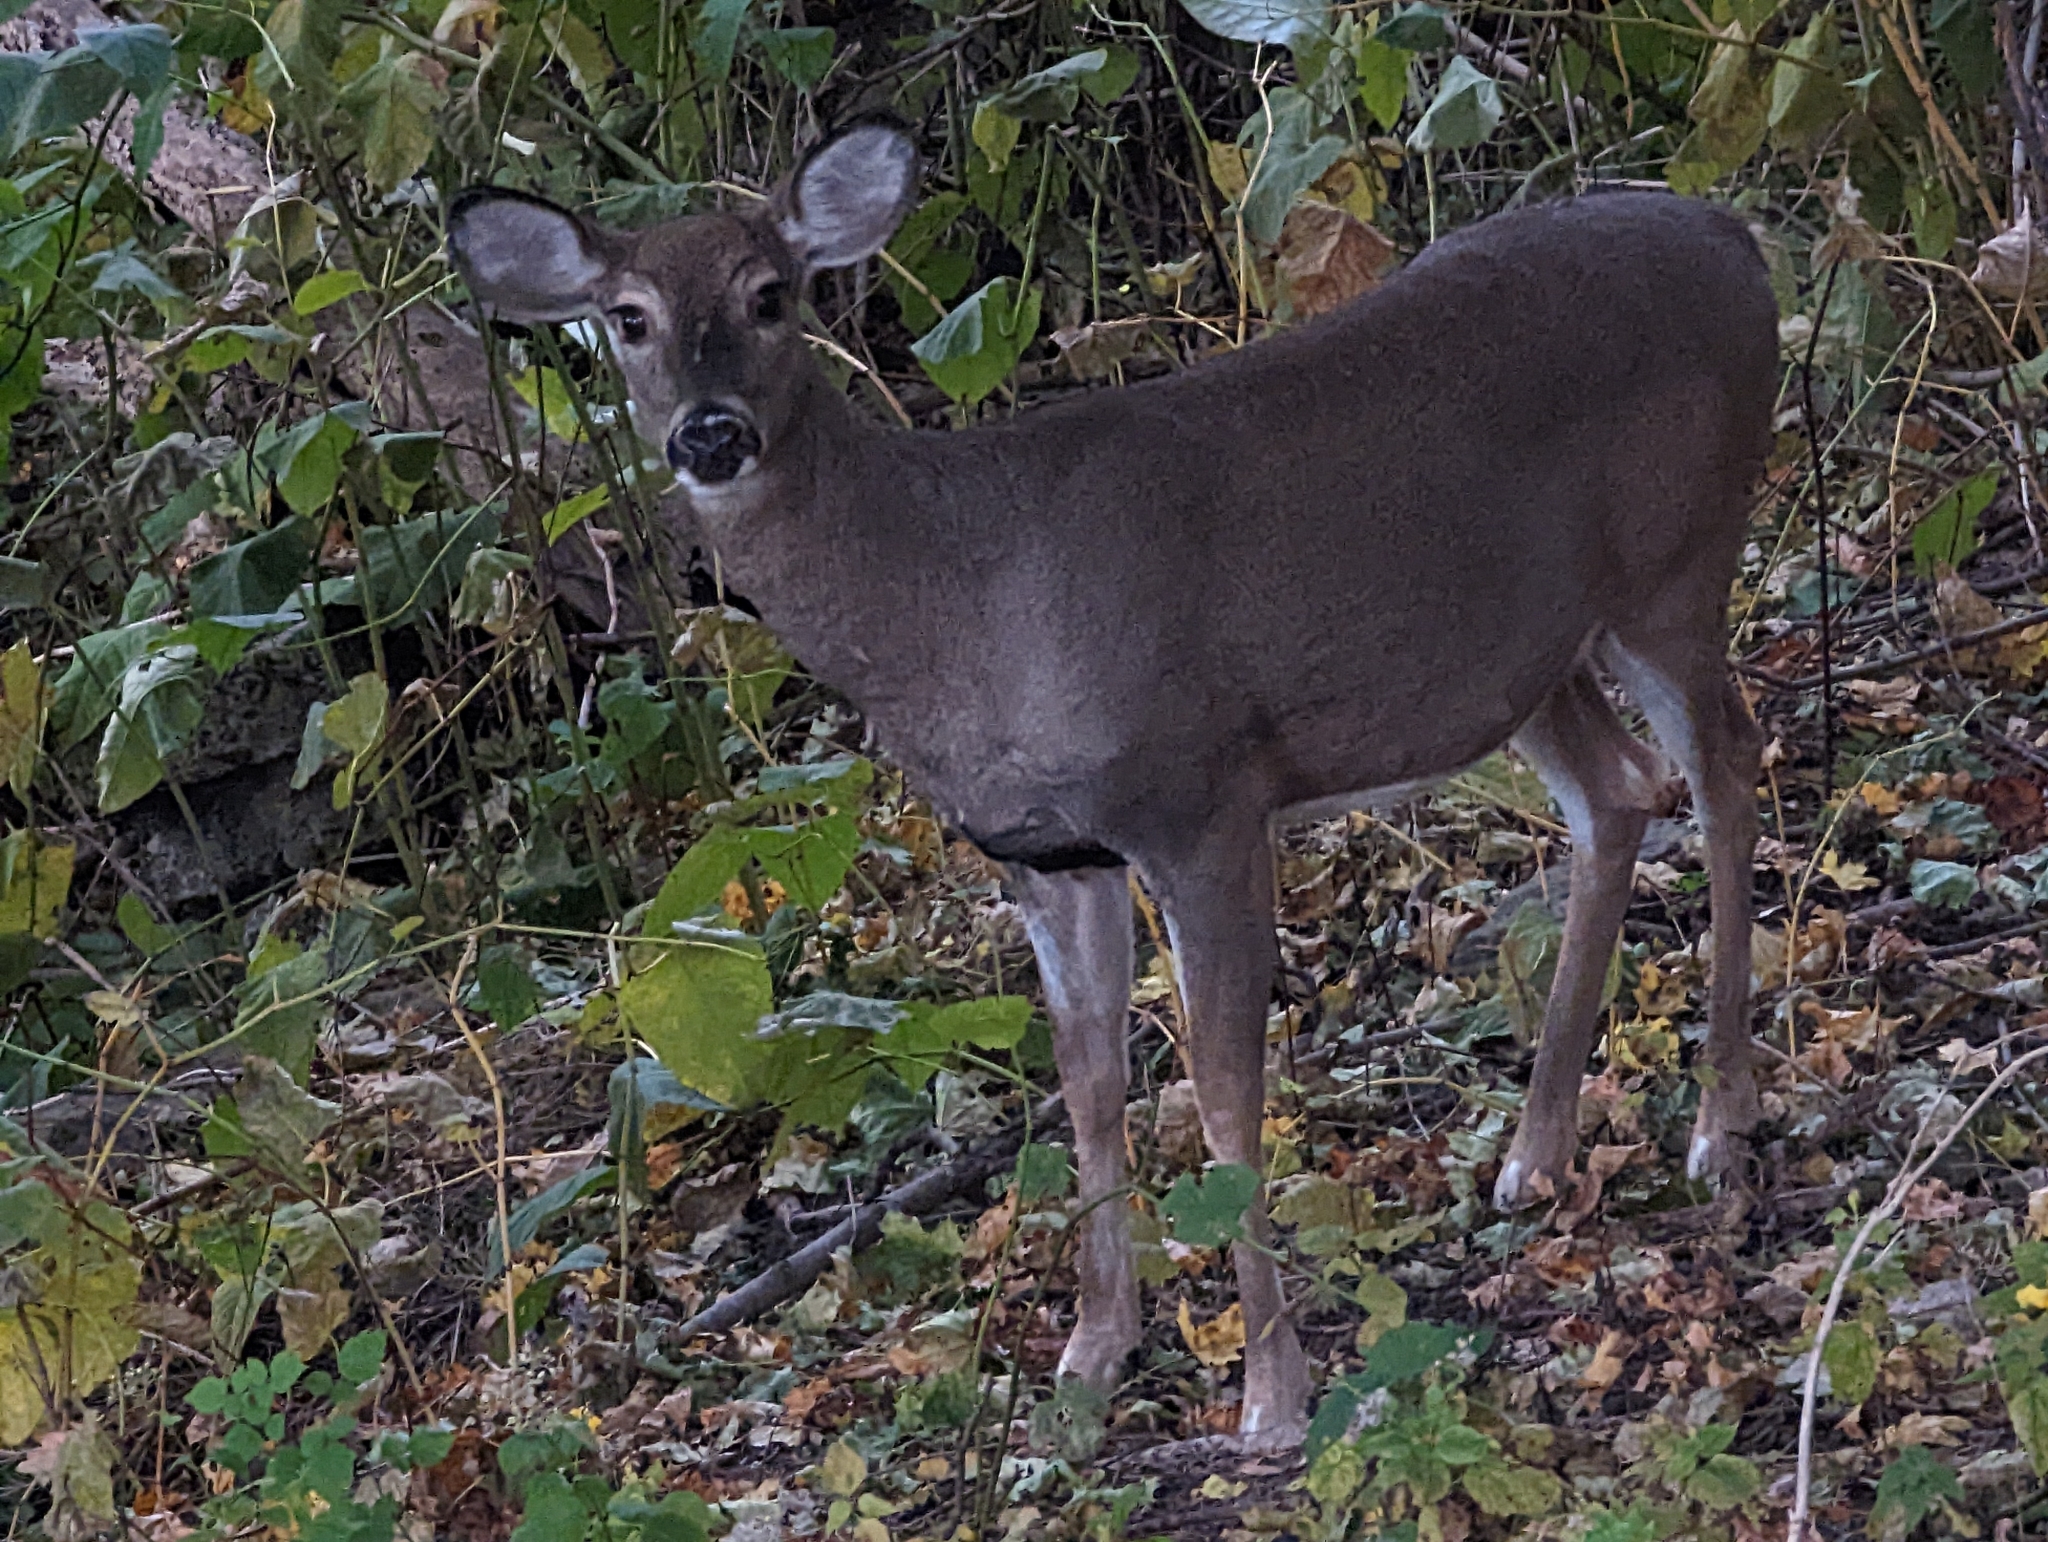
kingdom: Animalia
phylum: Chordata
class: Mammalia
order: Artiodactyla
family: Cervidae
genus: Odocoileus
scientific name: Odocoileus virginianus
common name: White-tailed deer
